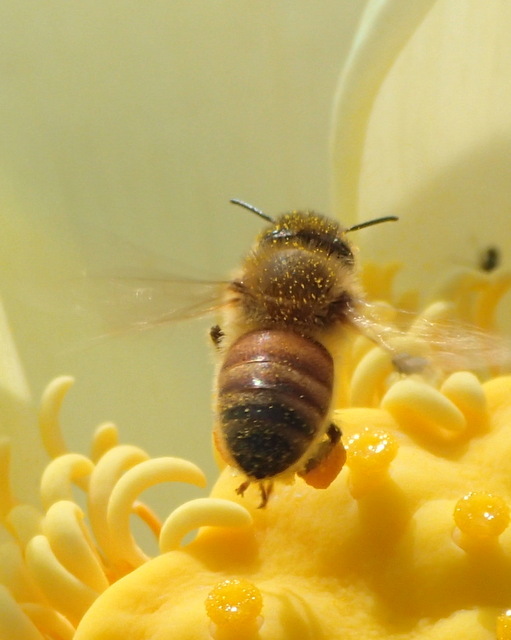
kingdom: Animalia
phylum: Arthropoda
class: Insecta
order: Hymenoptera
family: Apidae
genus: Apis
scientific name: Apis mellifera
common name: Honey bee
